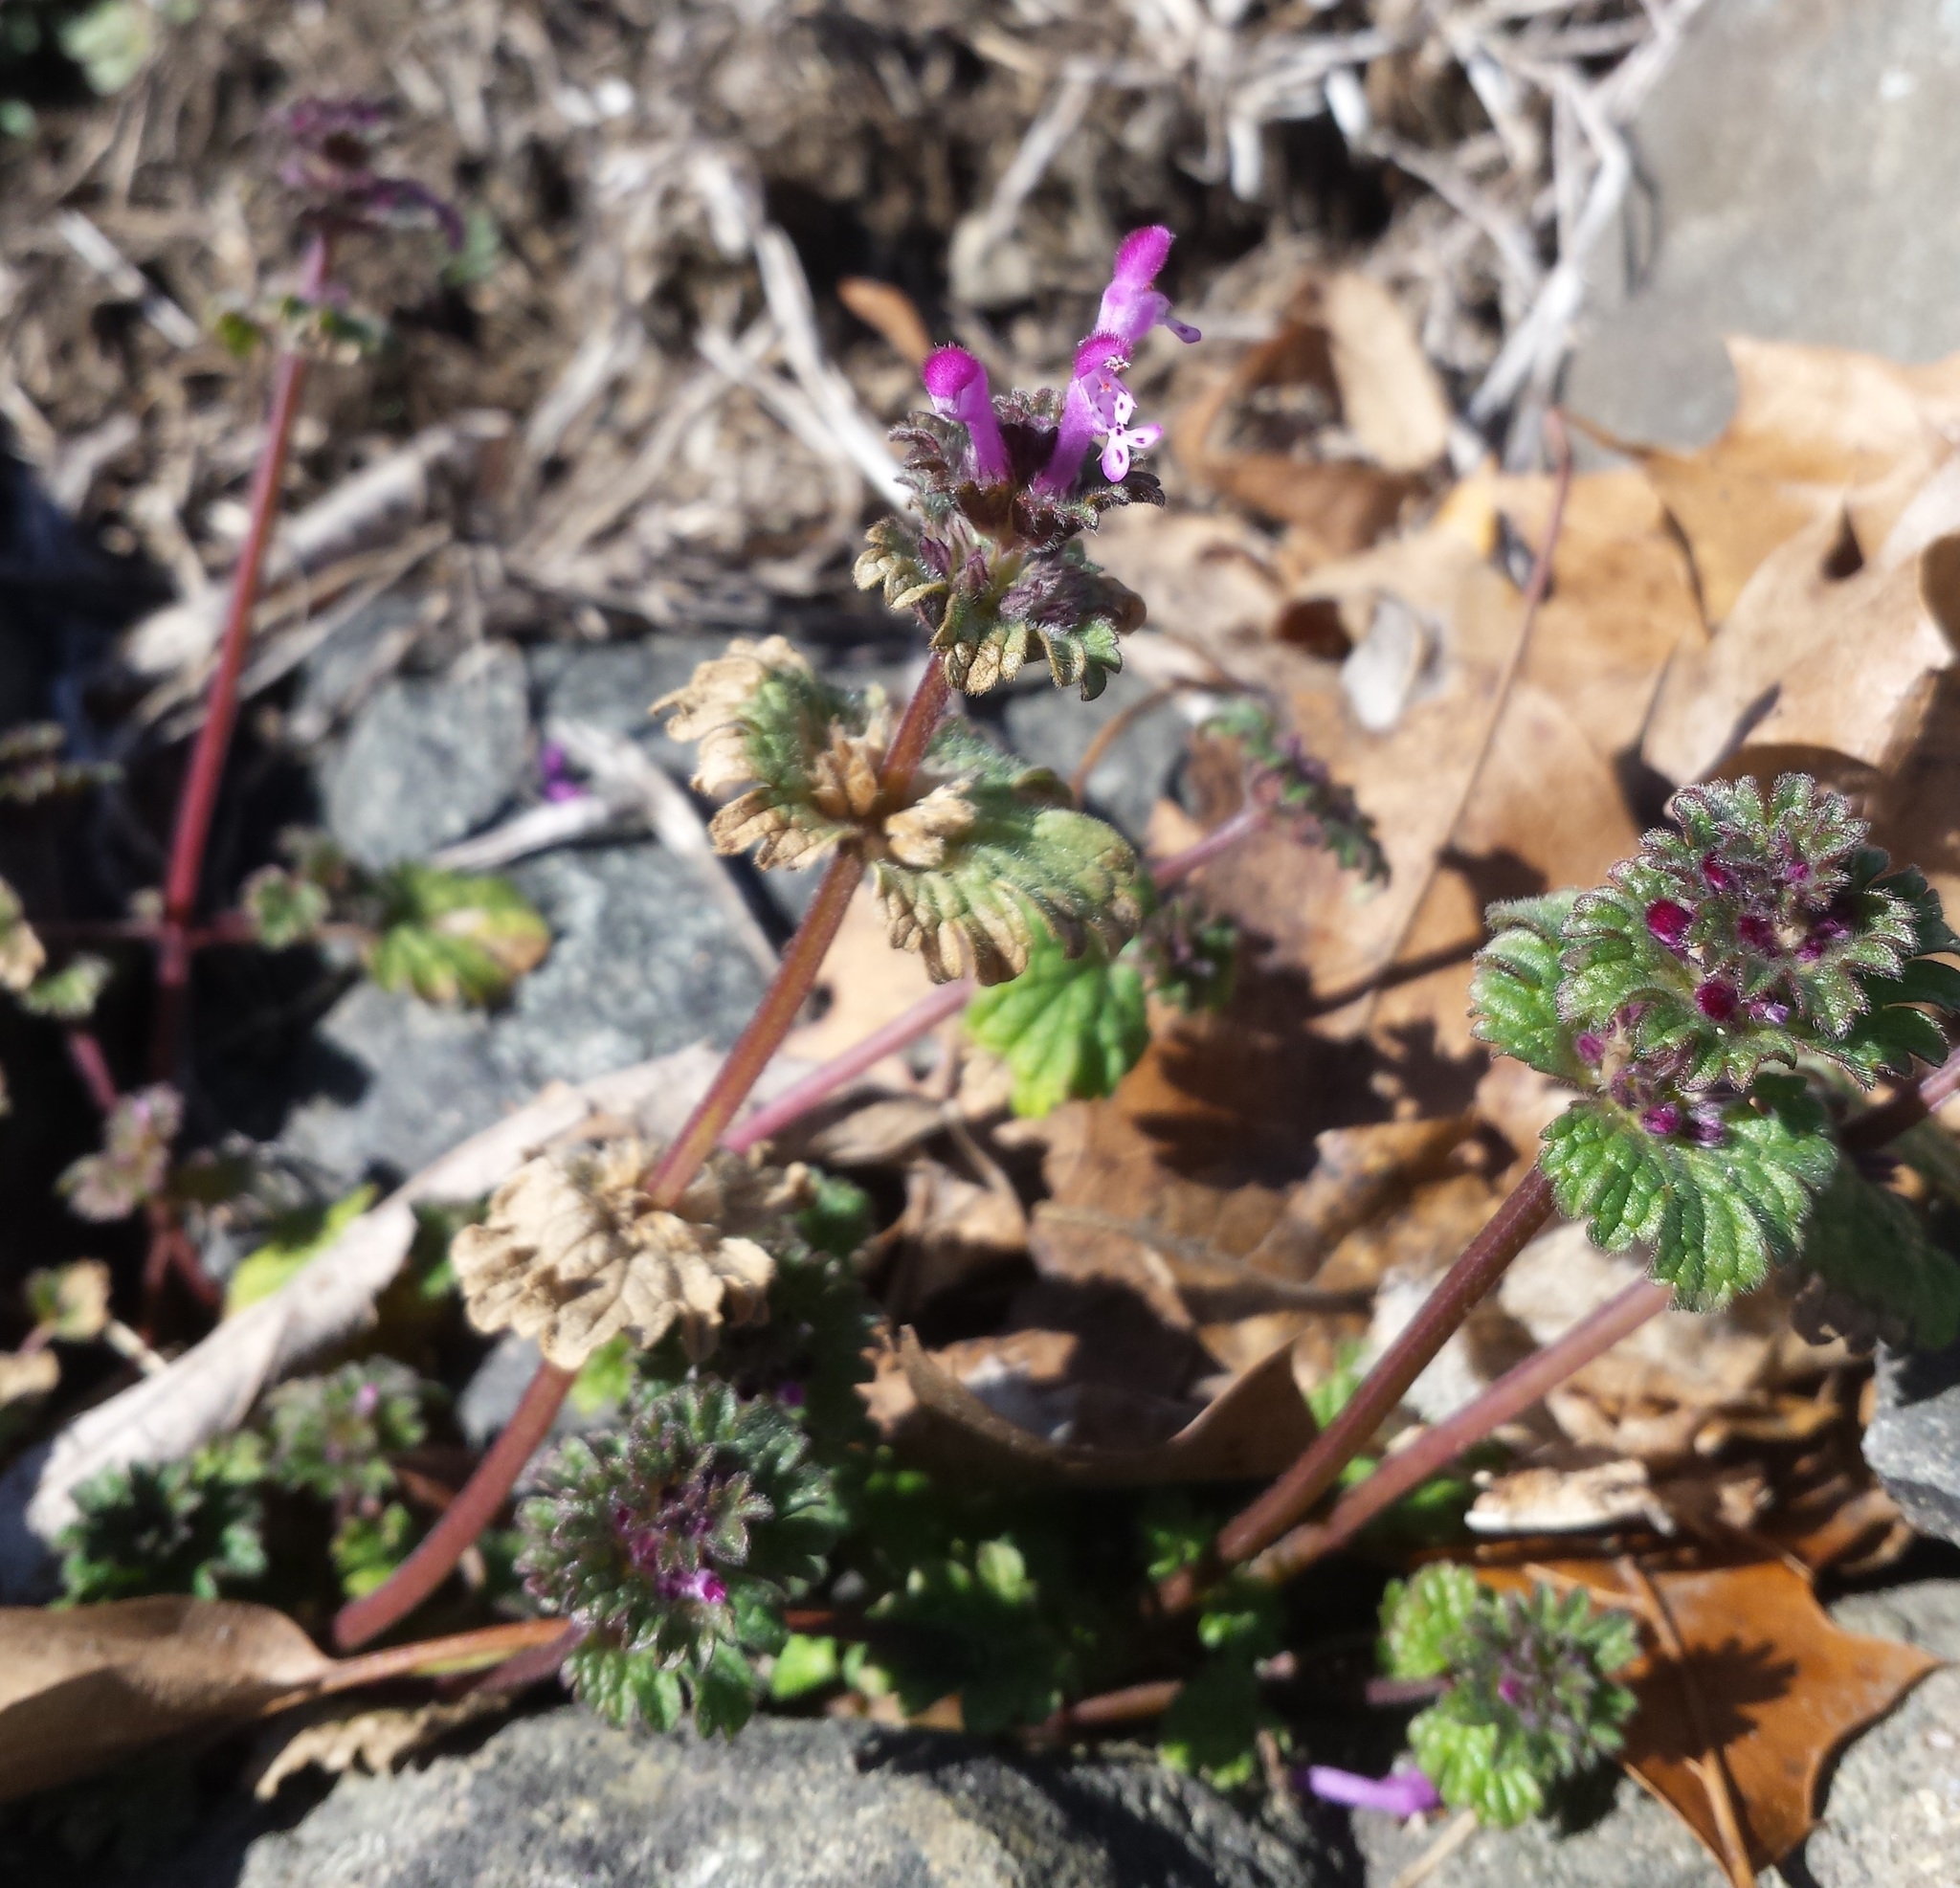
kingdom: Plantae
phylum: Tracheophyta
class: Magnoliopsida
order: Lamiales
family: Lamiaceae
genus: Lamium
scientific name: Lamium amplexicaule
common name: Henbit dead-nettle
